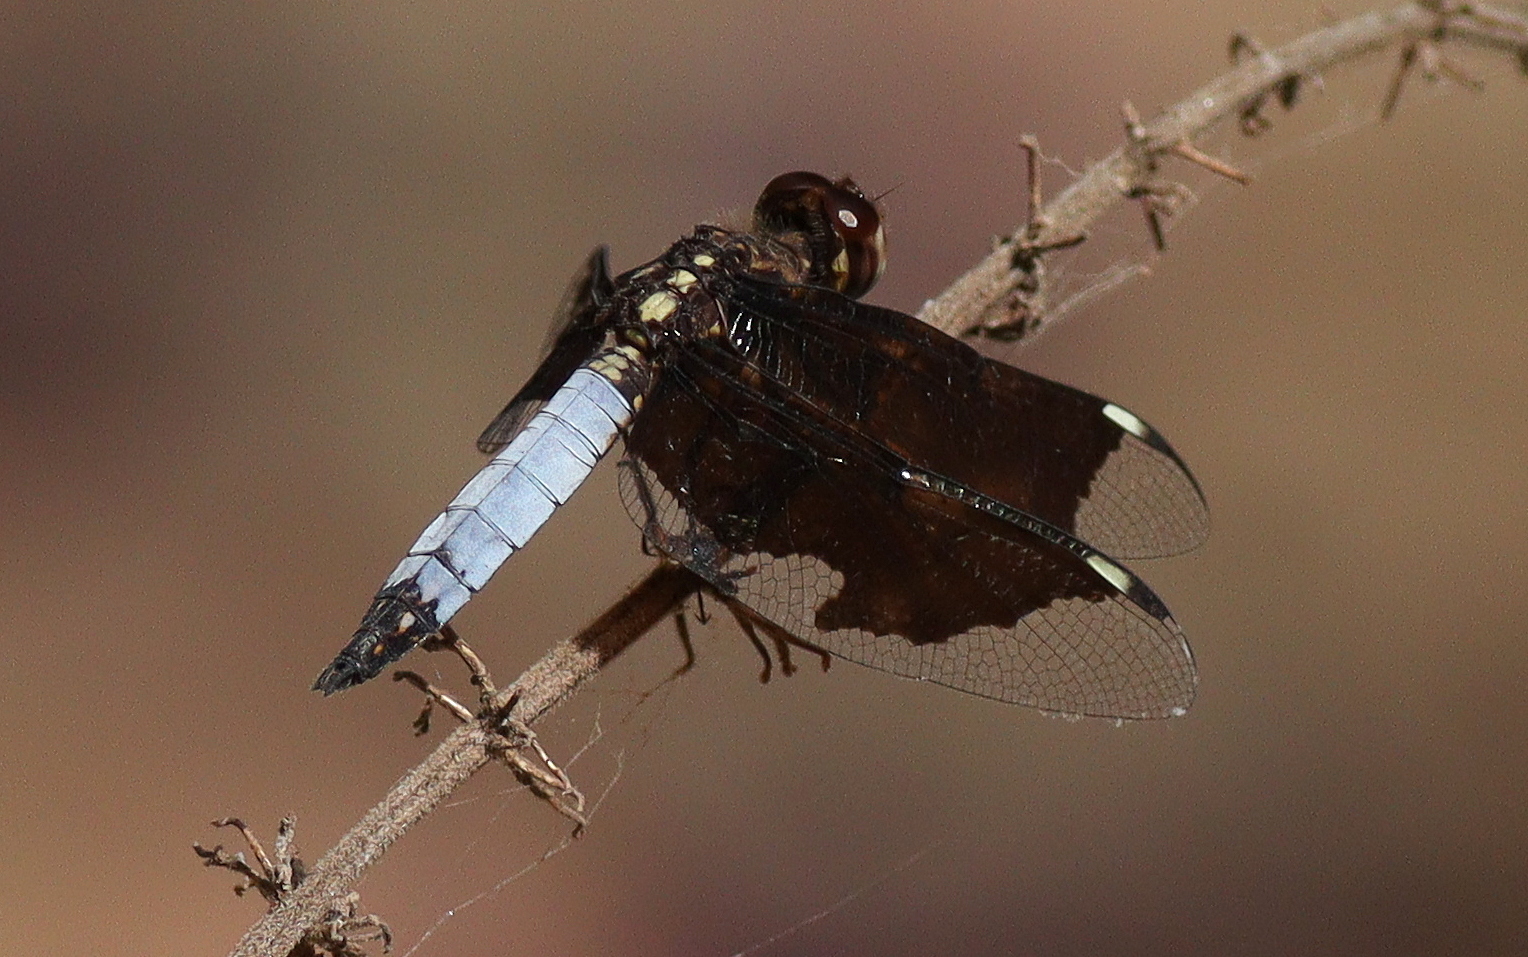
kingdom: Animalia
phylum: Arthropoda
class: Insecta
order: Odonata
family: Libellulidae
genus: Palpopleura
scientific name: Palpopleura lucia
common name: Lucia widow
